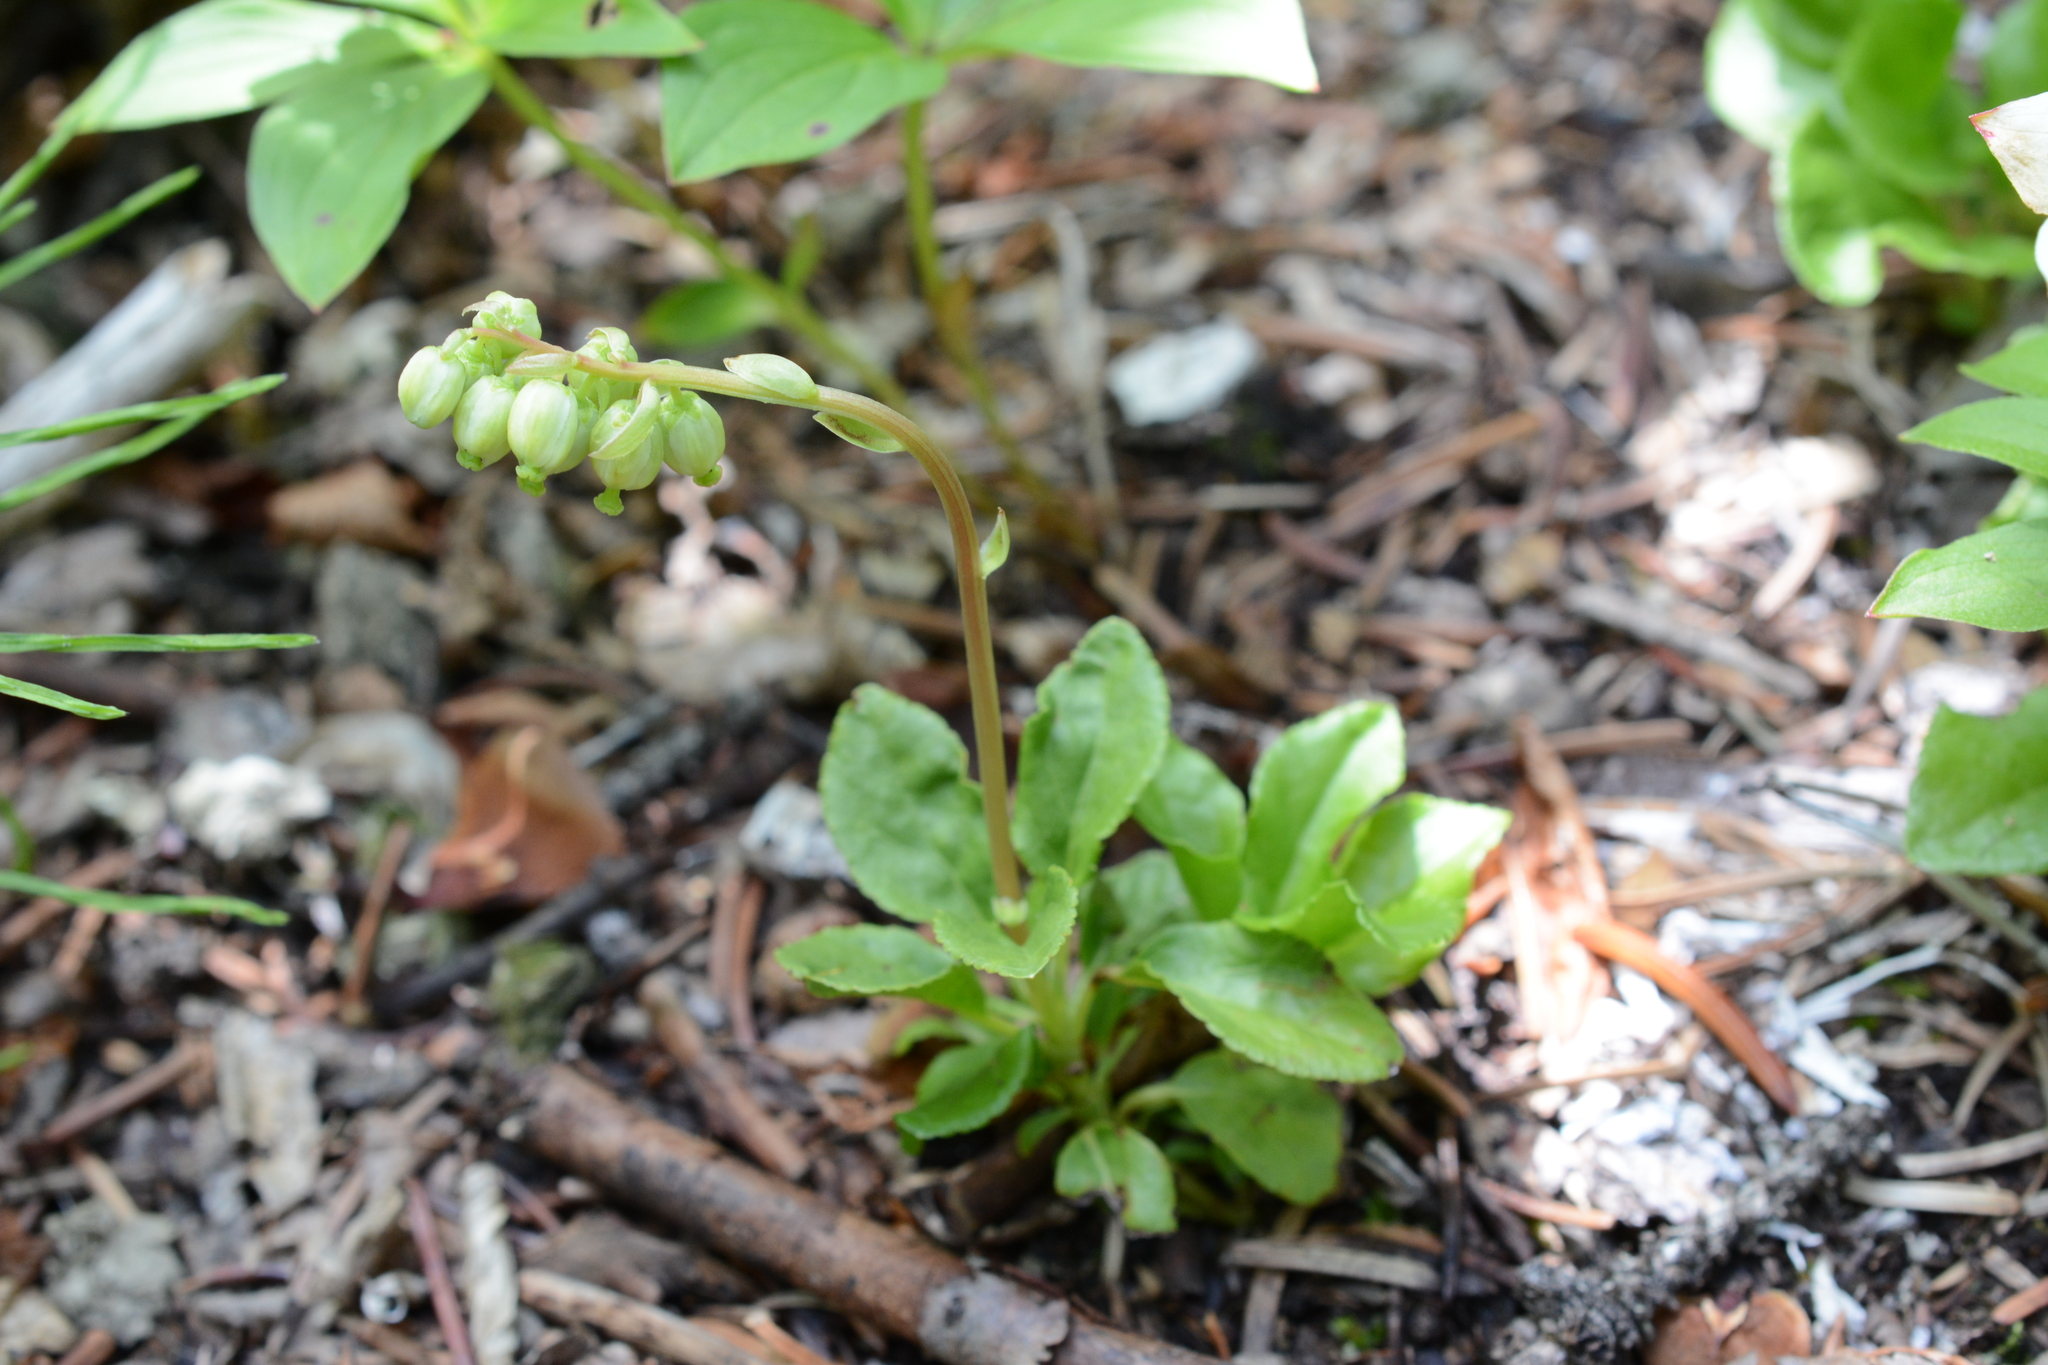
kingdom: Plantae
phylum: Tracheophyta
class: Magnoliopsida
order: Ericales
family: Ericaceae
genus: Orthilia
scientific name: Orthilia secunda
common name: One-sided orthilia
